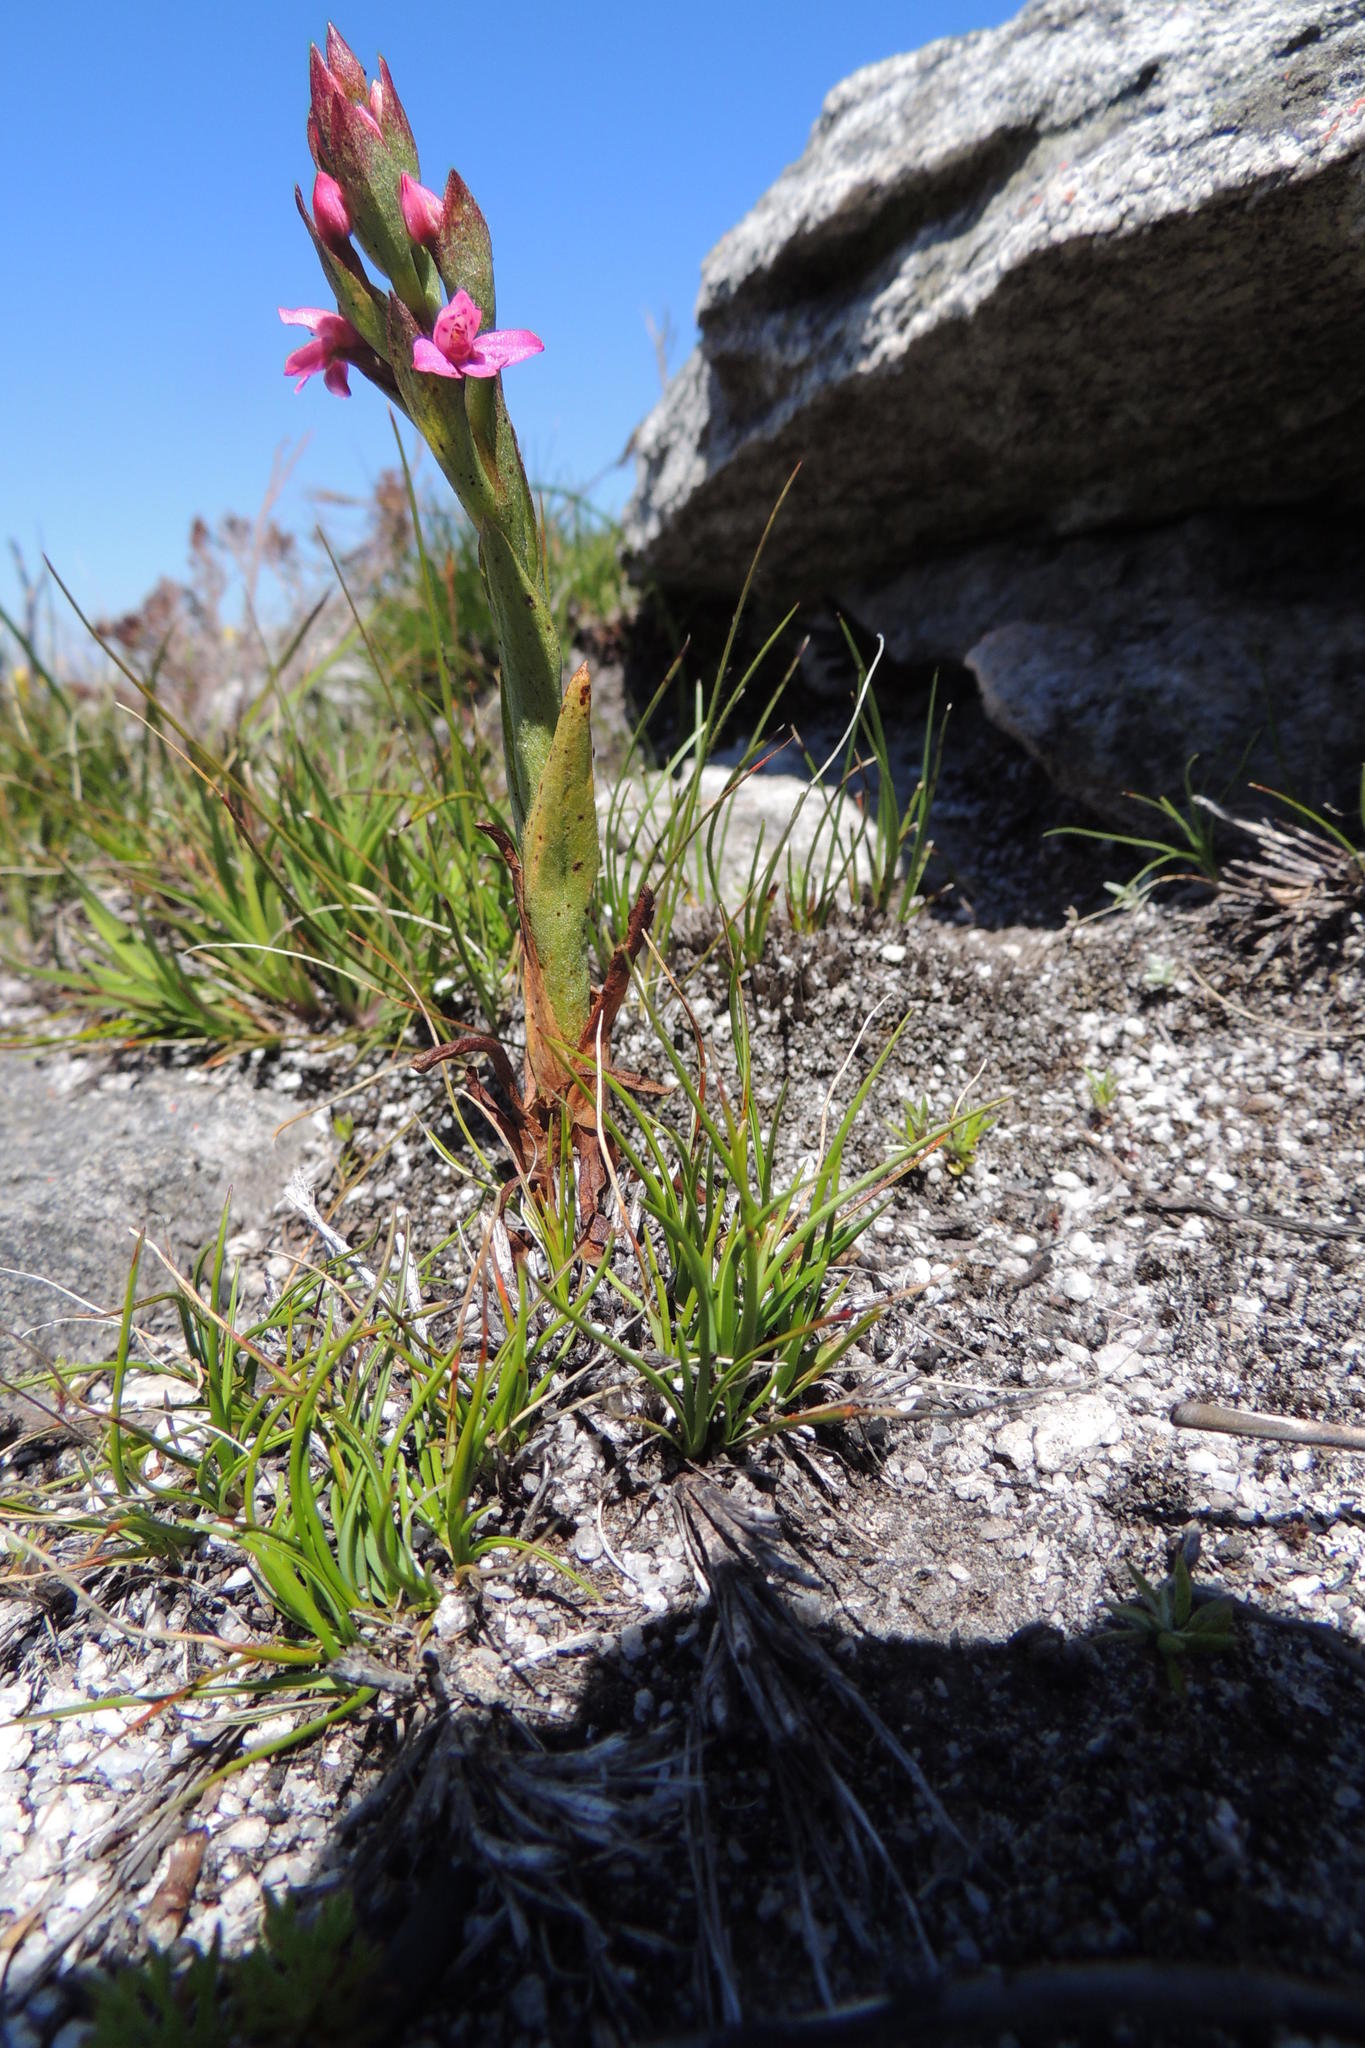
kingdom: Plantae
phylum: Tracheophyta
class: Liliopsida
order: Asparagales
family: Orchidaceae
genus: Disa
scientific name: Disa vaginata
